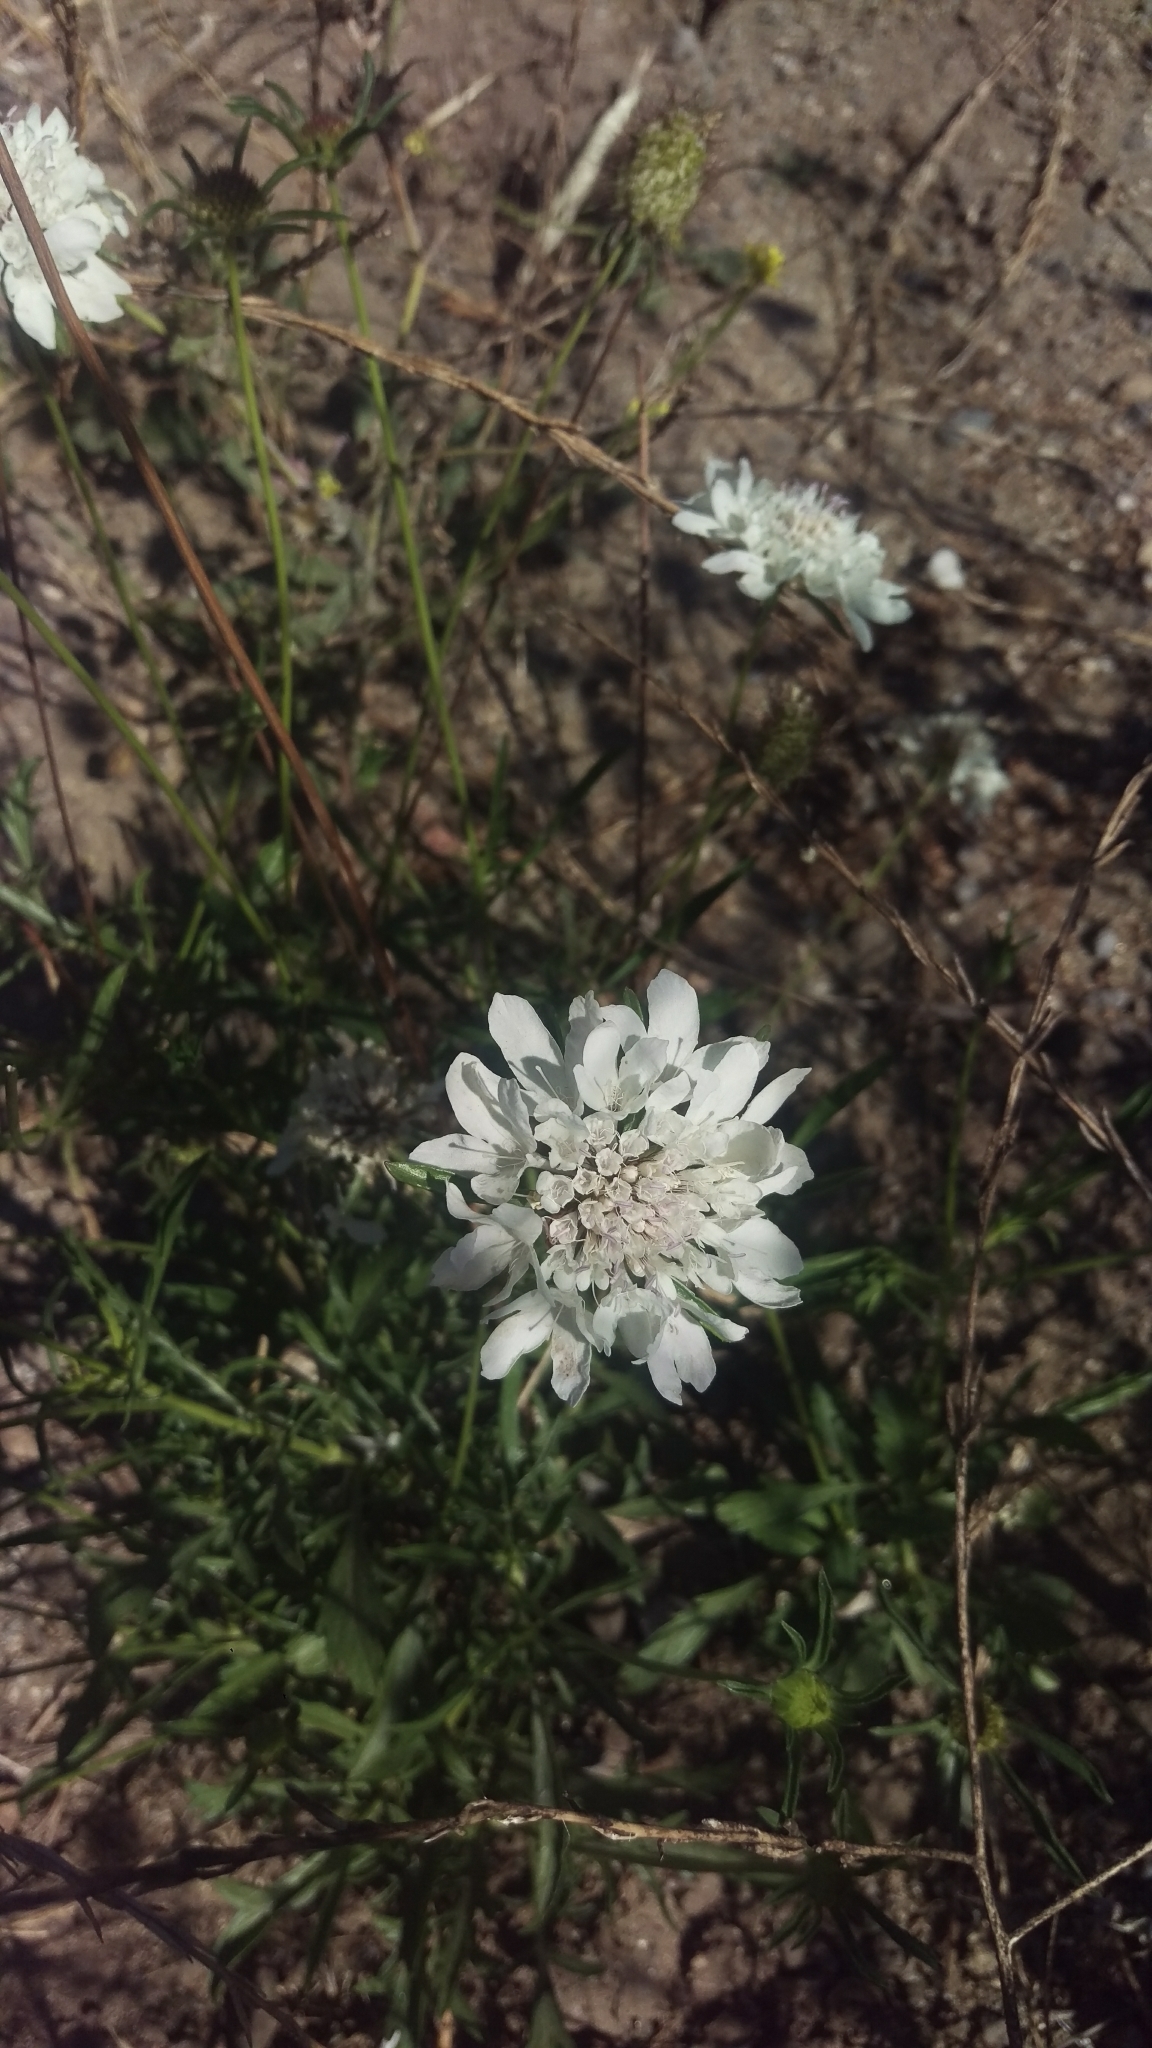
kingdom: Plantae
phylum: Tracheophyta
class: Magnoliopsida
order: Dipsacales
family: Caprifoliaceae
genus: Sixalix
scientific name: Sixalix atropurpurea
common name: Sweet scabious
